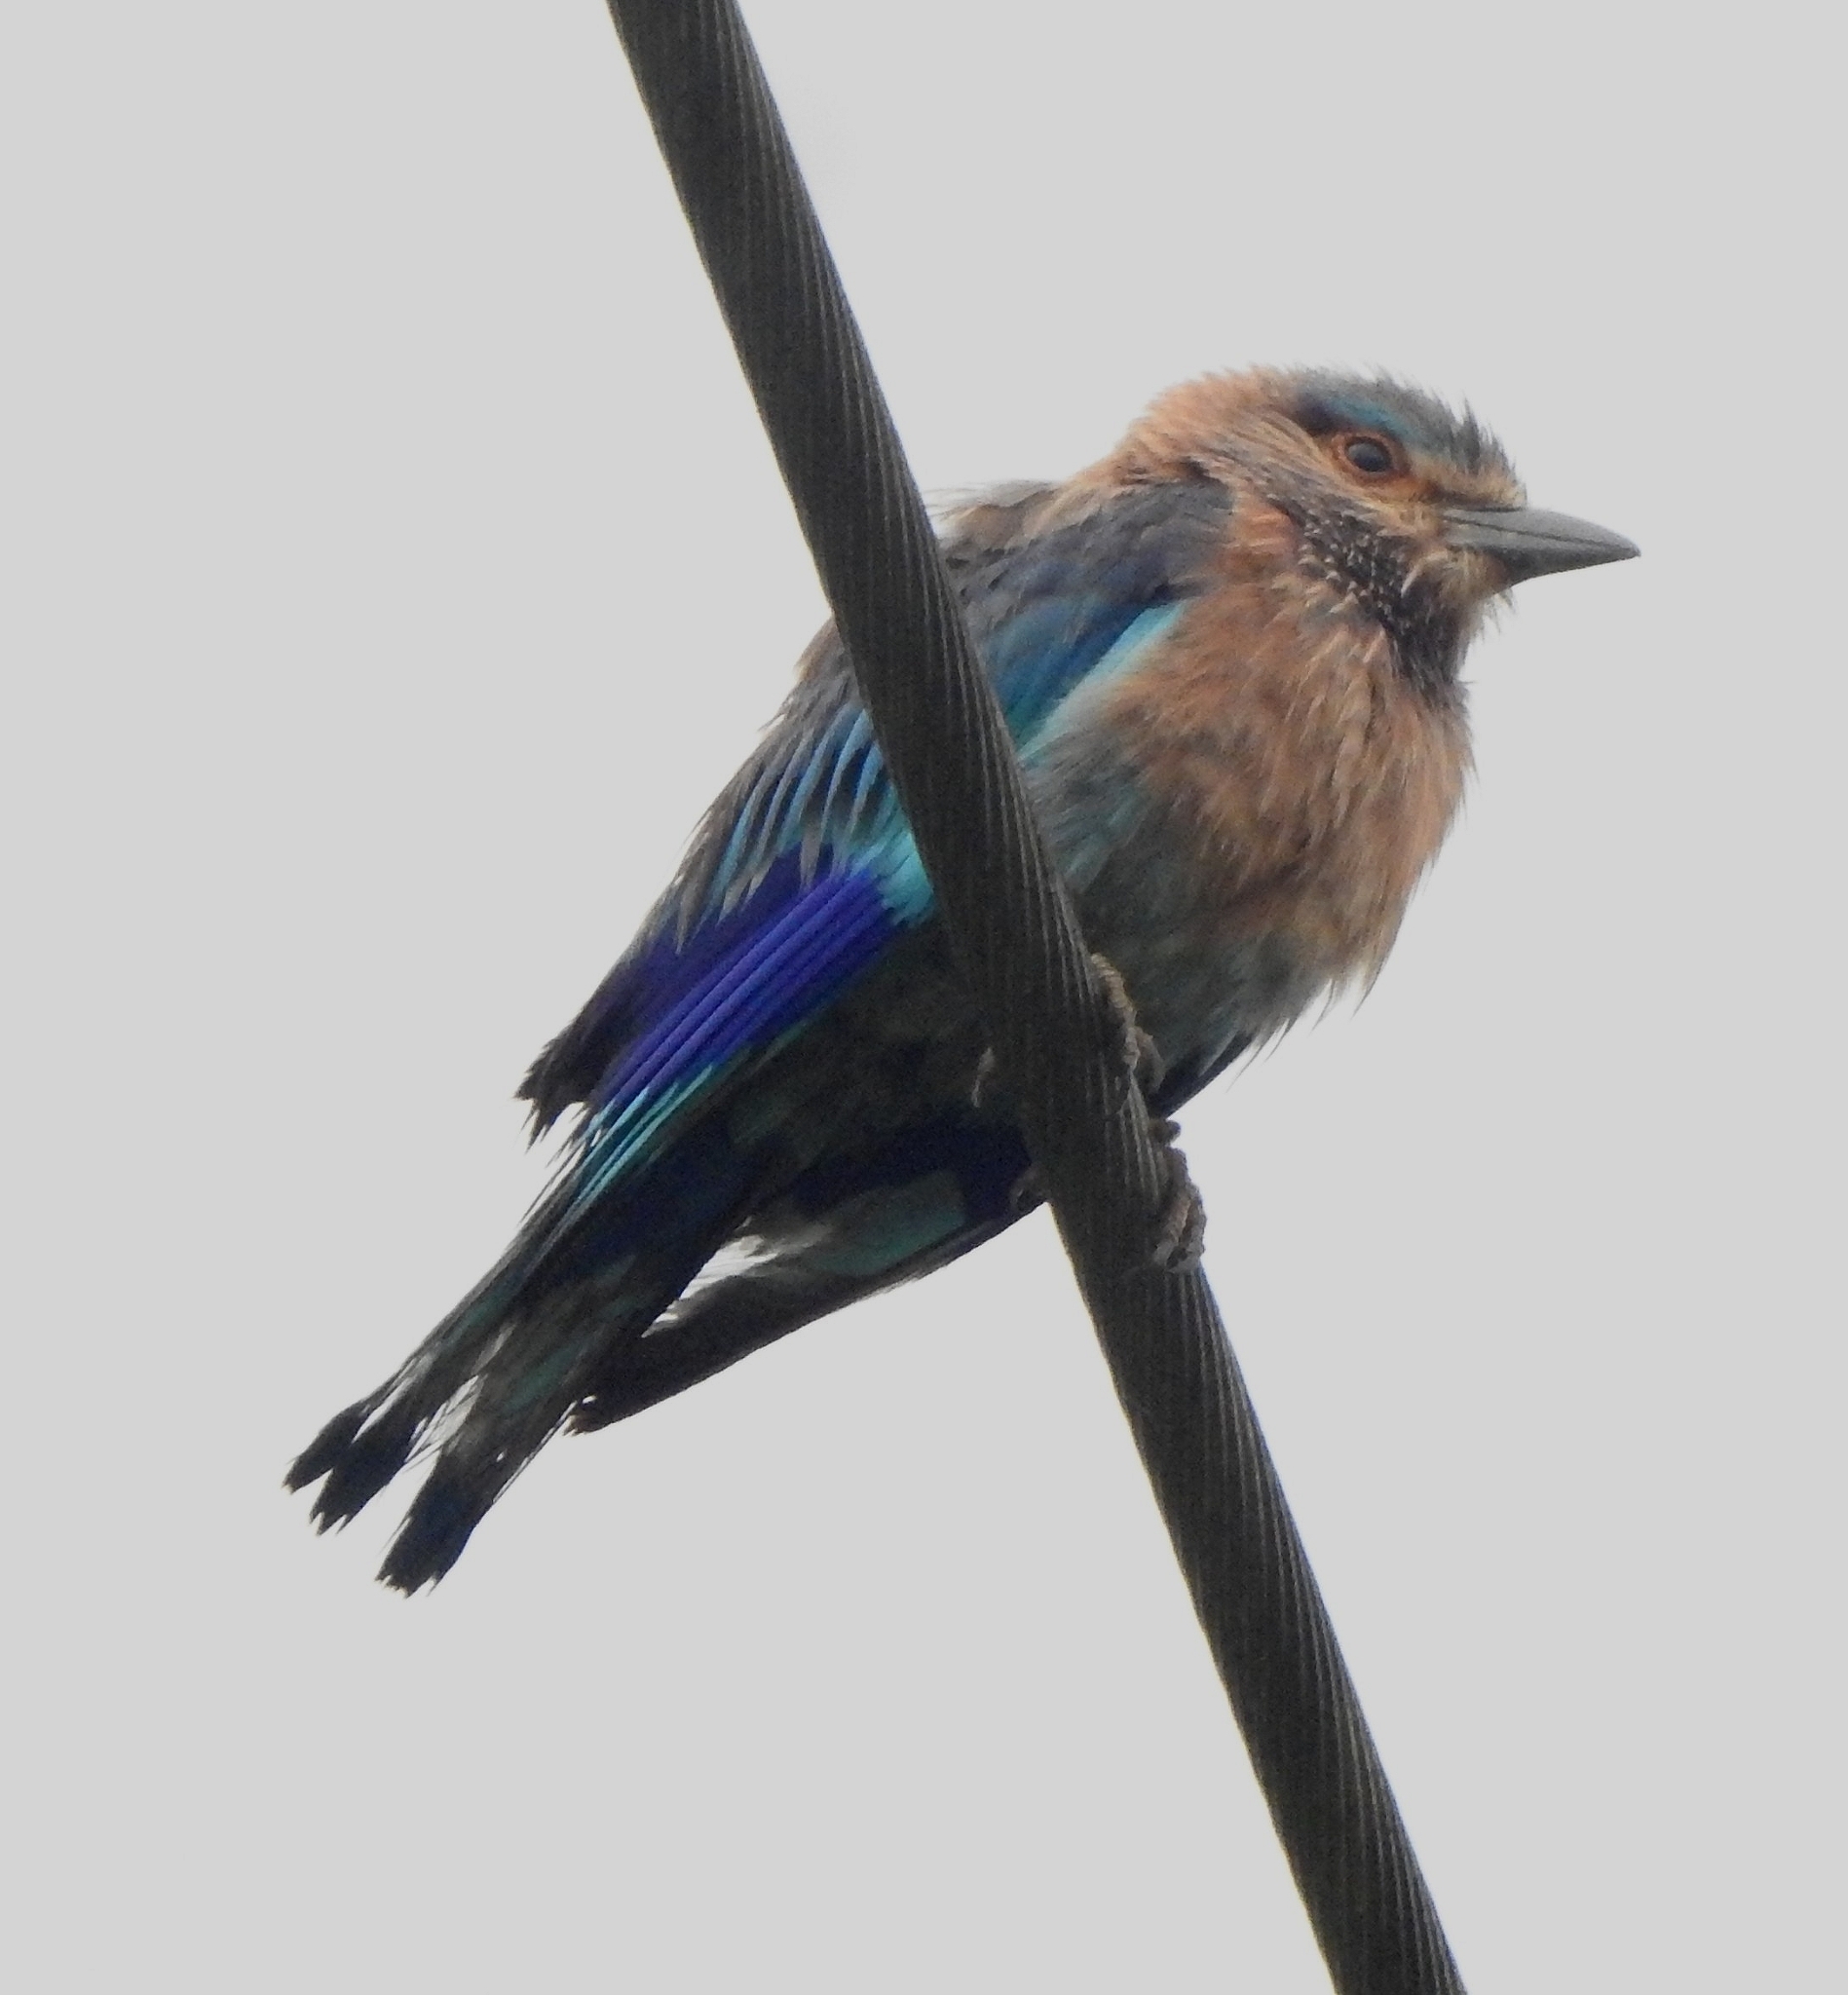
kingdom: Animalia
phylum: Chordata
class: Aves
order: Coraciiformes
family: Coraciidae
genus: Coracias
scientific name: Coracias benghalensis
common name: Indian roller
